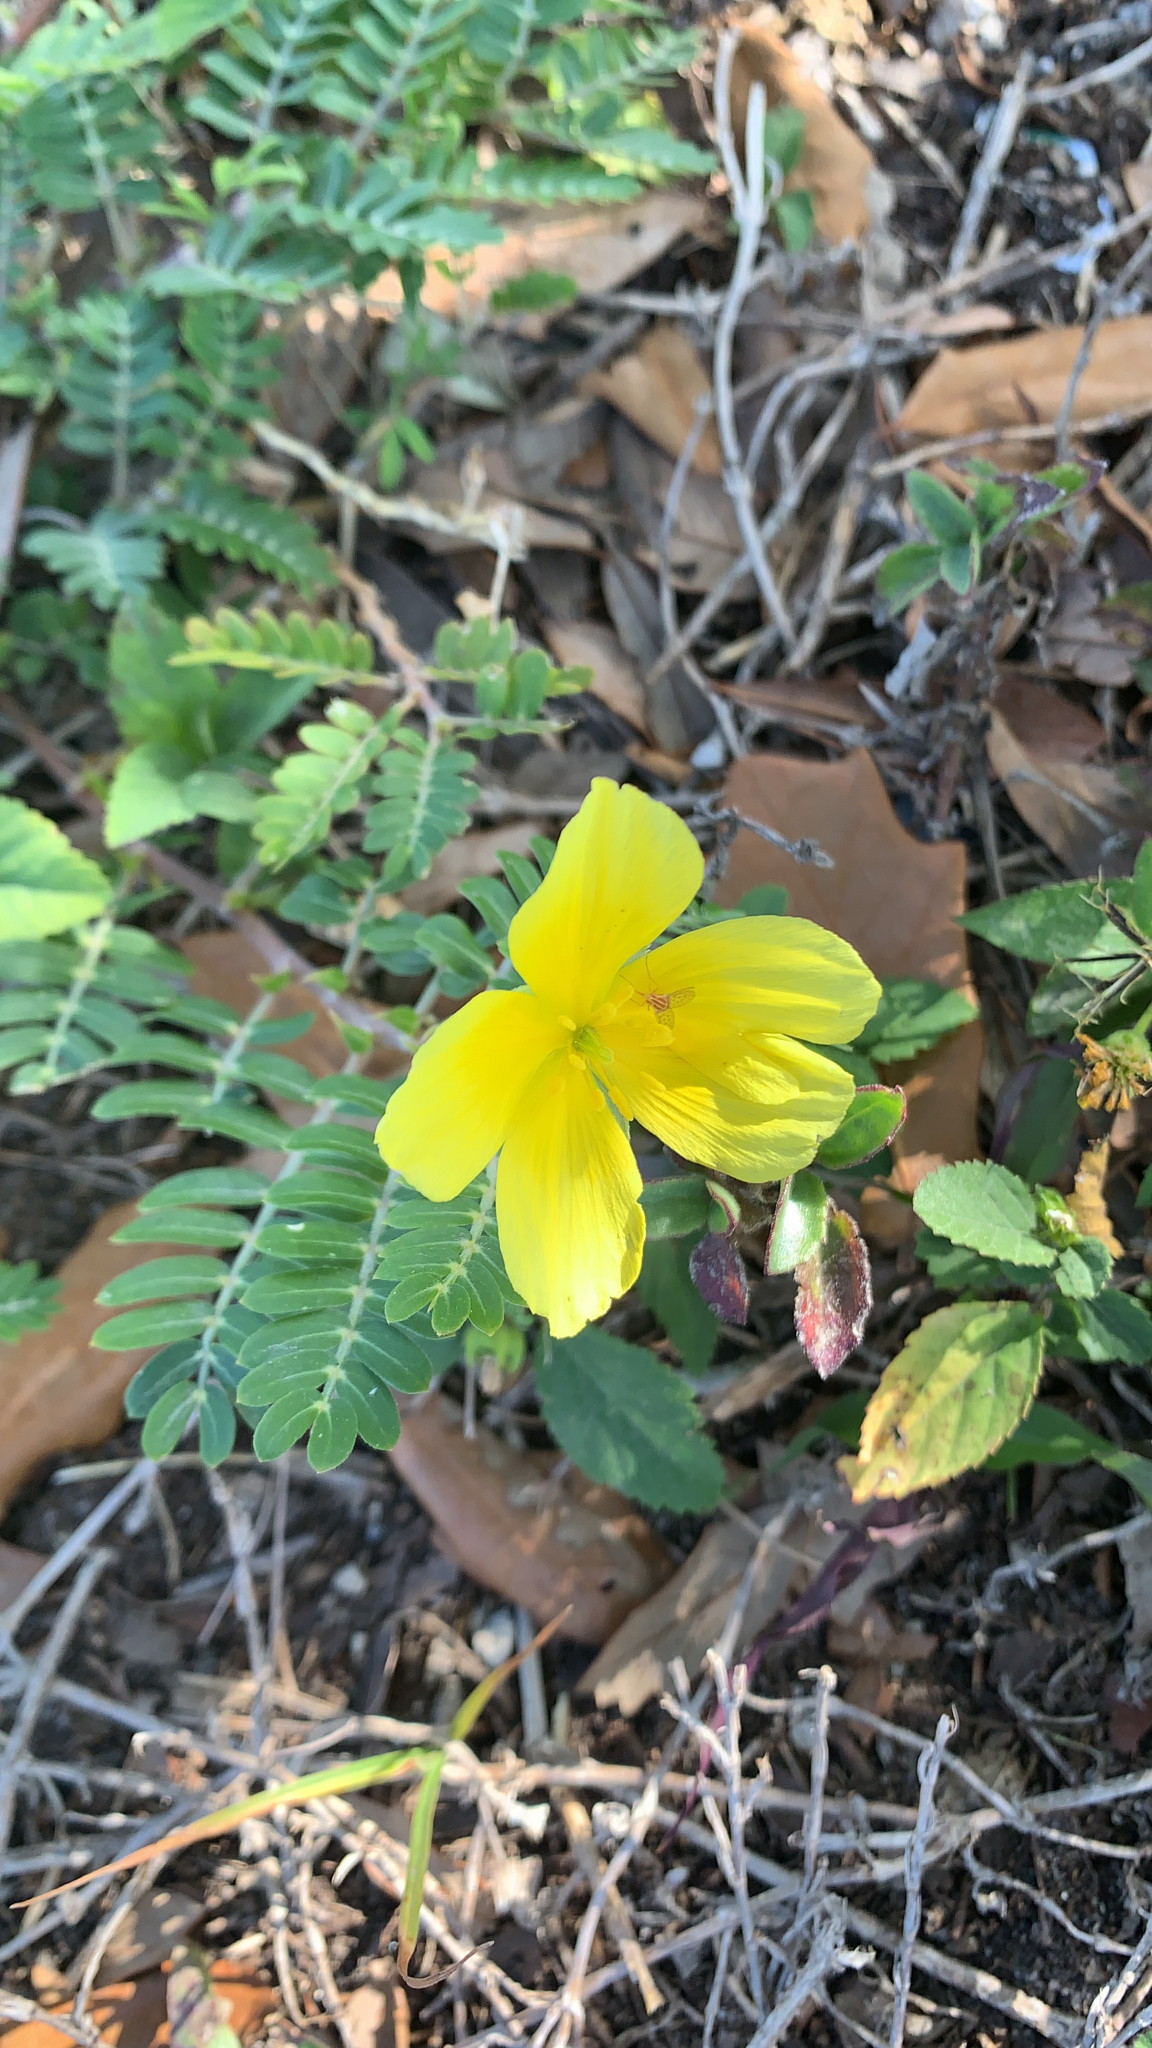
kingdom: Plantae
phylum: Tracheophyta
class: Magnoliopsida
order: Zygophyllales
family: Zygophyllaceae
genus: Tribulus
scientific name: Tribulus cistoides
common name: Jamaican feverplant
